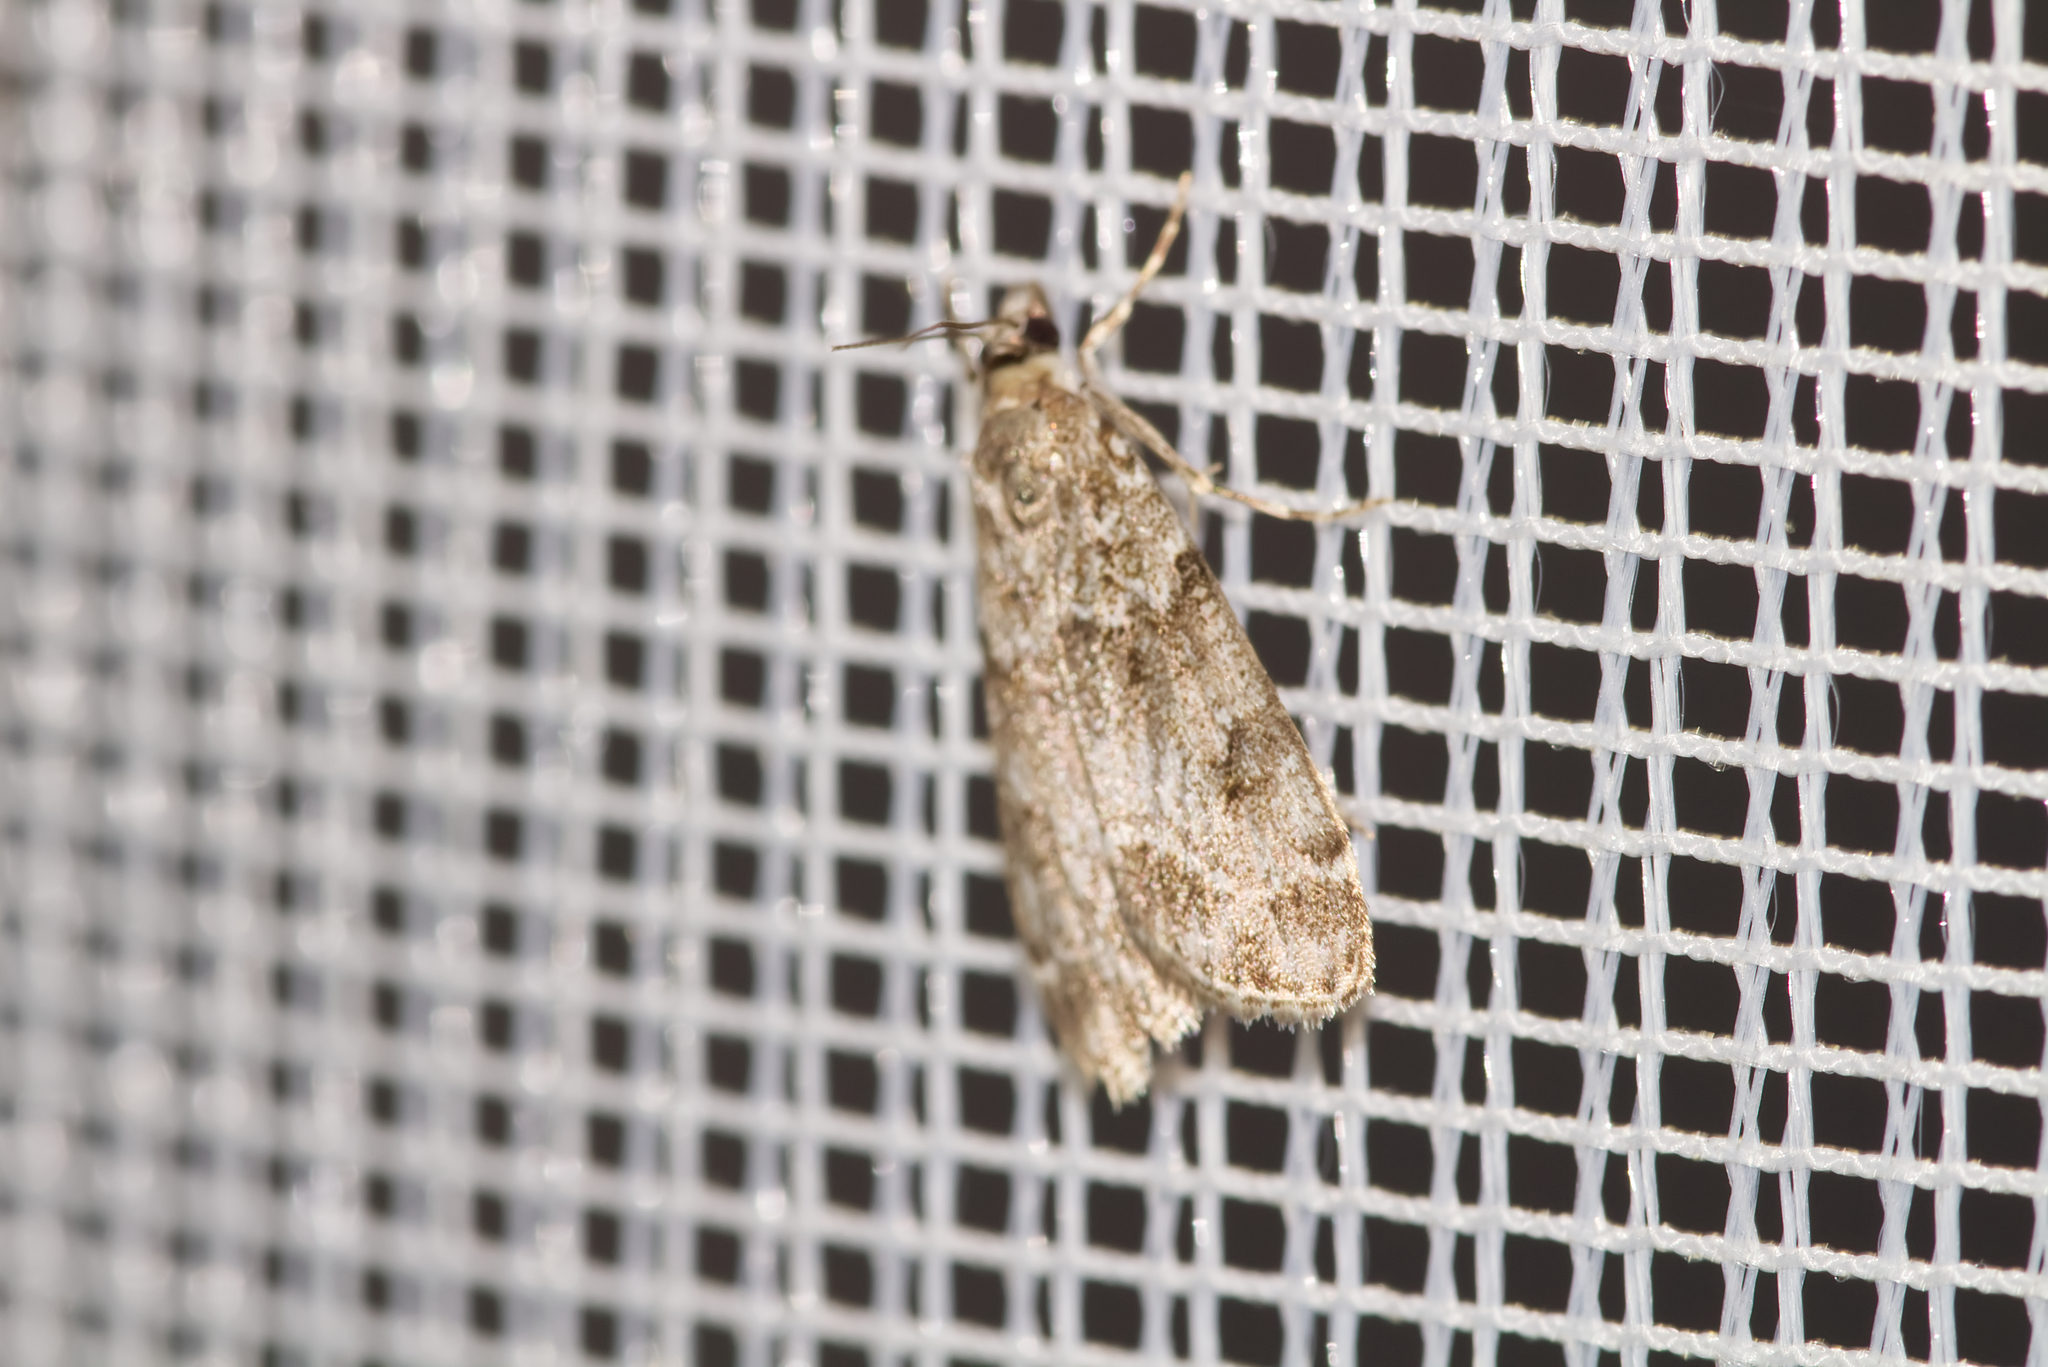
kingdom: Animalia
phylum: Arthropoda
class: Insecta
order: Lepidoptera
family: Crambidae
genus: Eudonia
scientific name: Eudonia mercurella
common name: Small grey
